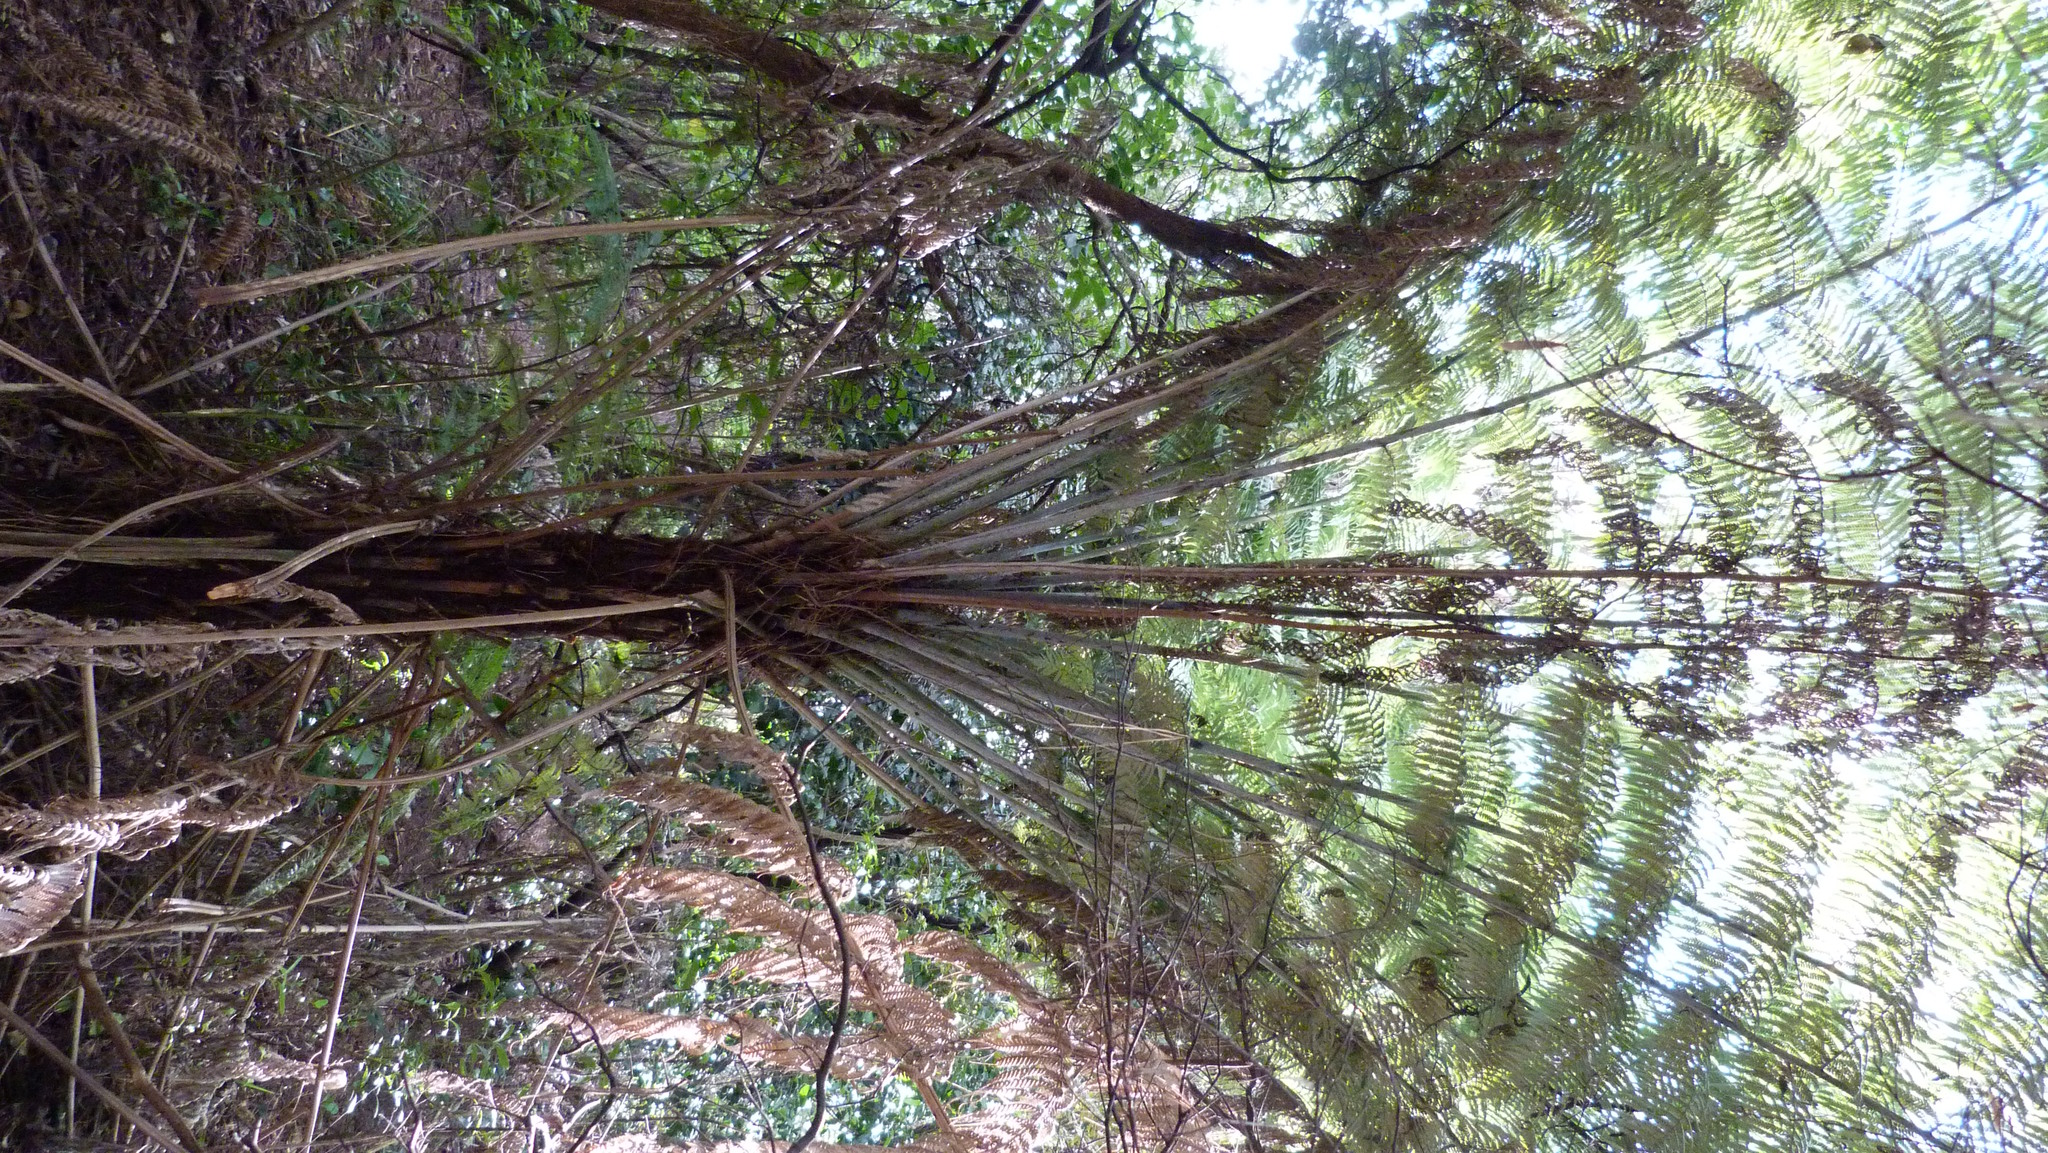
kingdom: Plantae
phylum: Tracheophyta
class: Polypodiopsida
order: Cyatheales
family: Cyatheaceae
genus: Alsophila
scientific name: Alsophila dealbata
